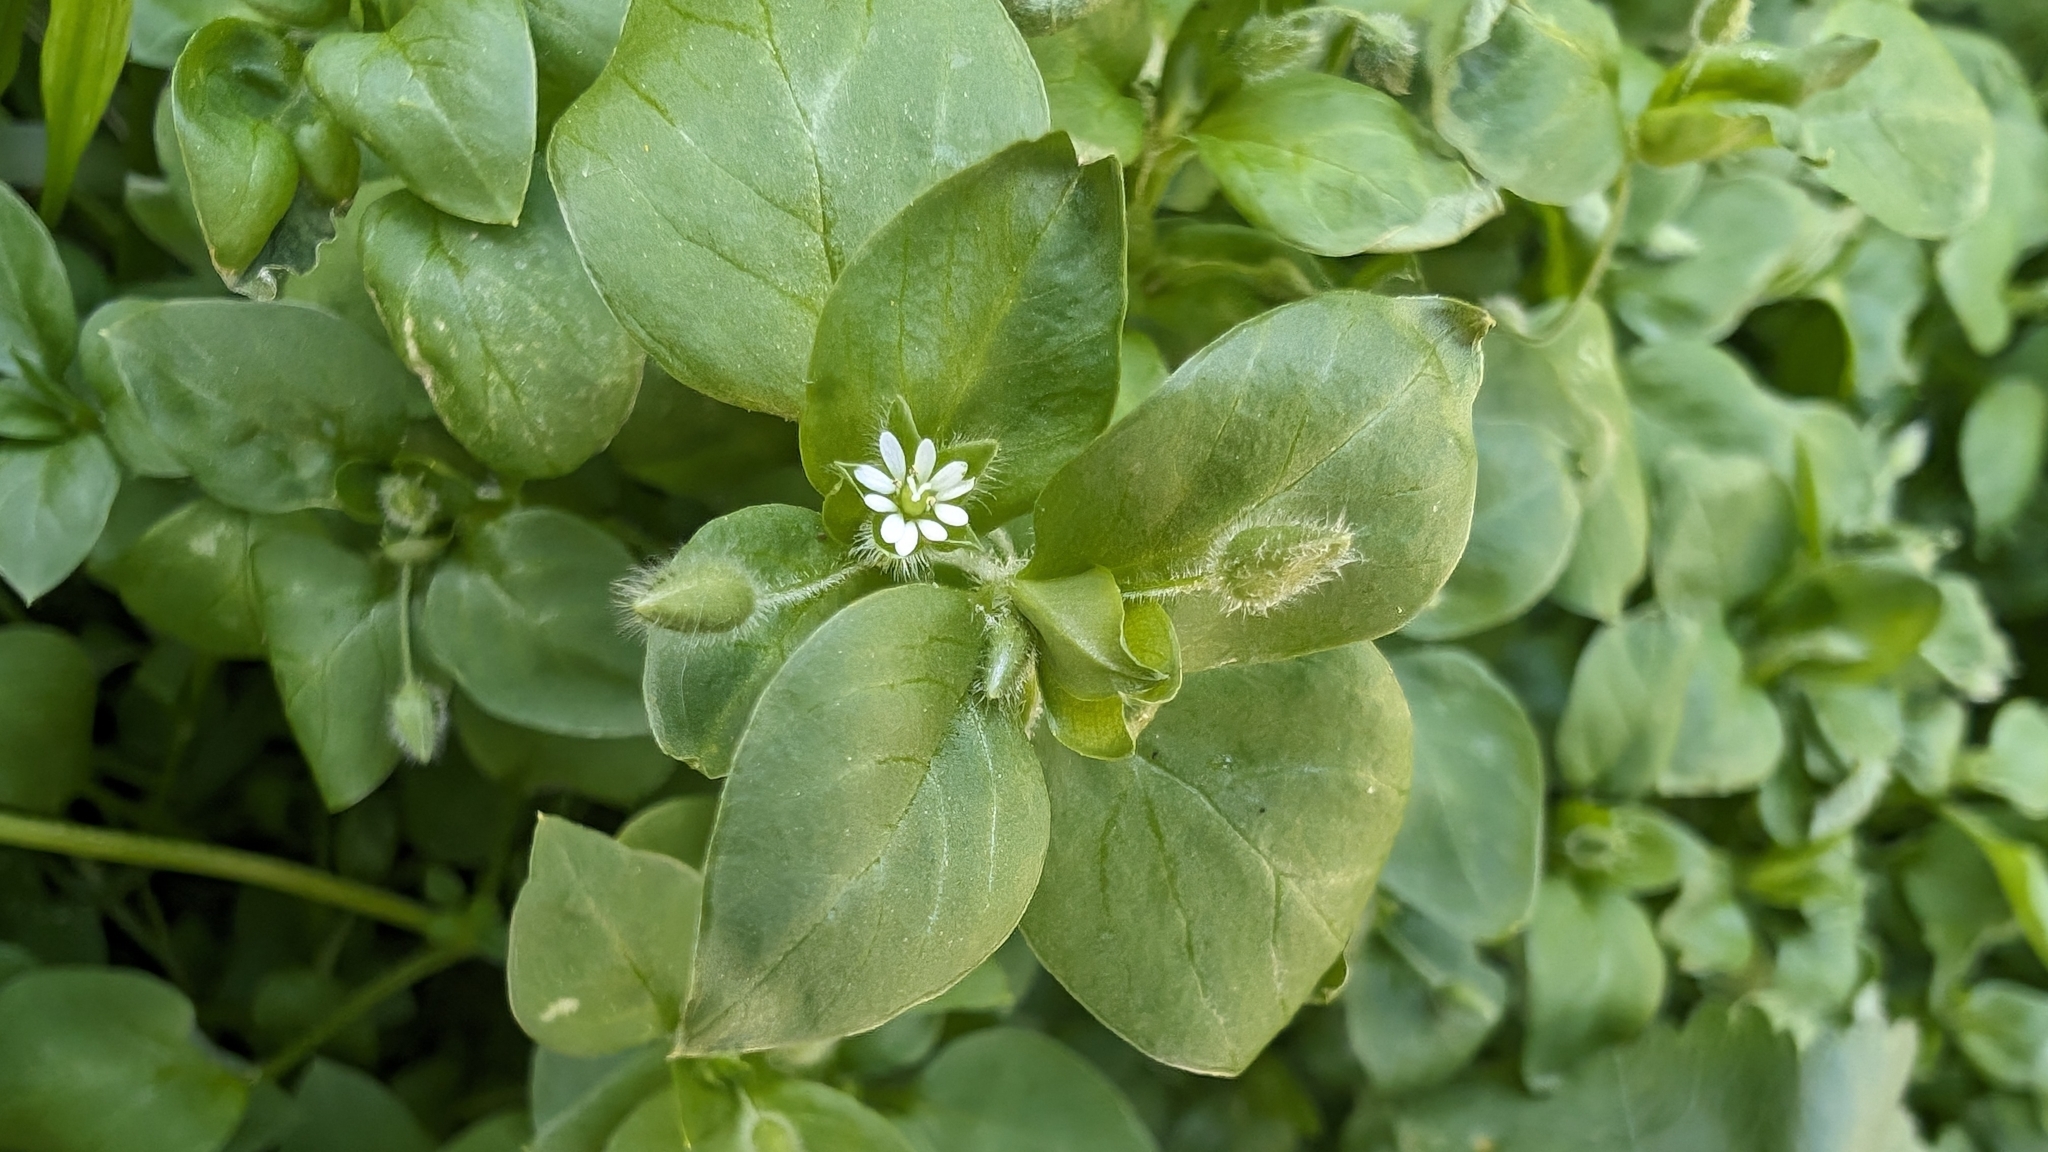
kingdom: Plantae
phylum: Tracheophyta
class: Magnoliopsida
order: Caryophyllales
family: Caryophyllaceae
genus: Stellaria
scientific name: Stellaria media
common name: Common chickweed
